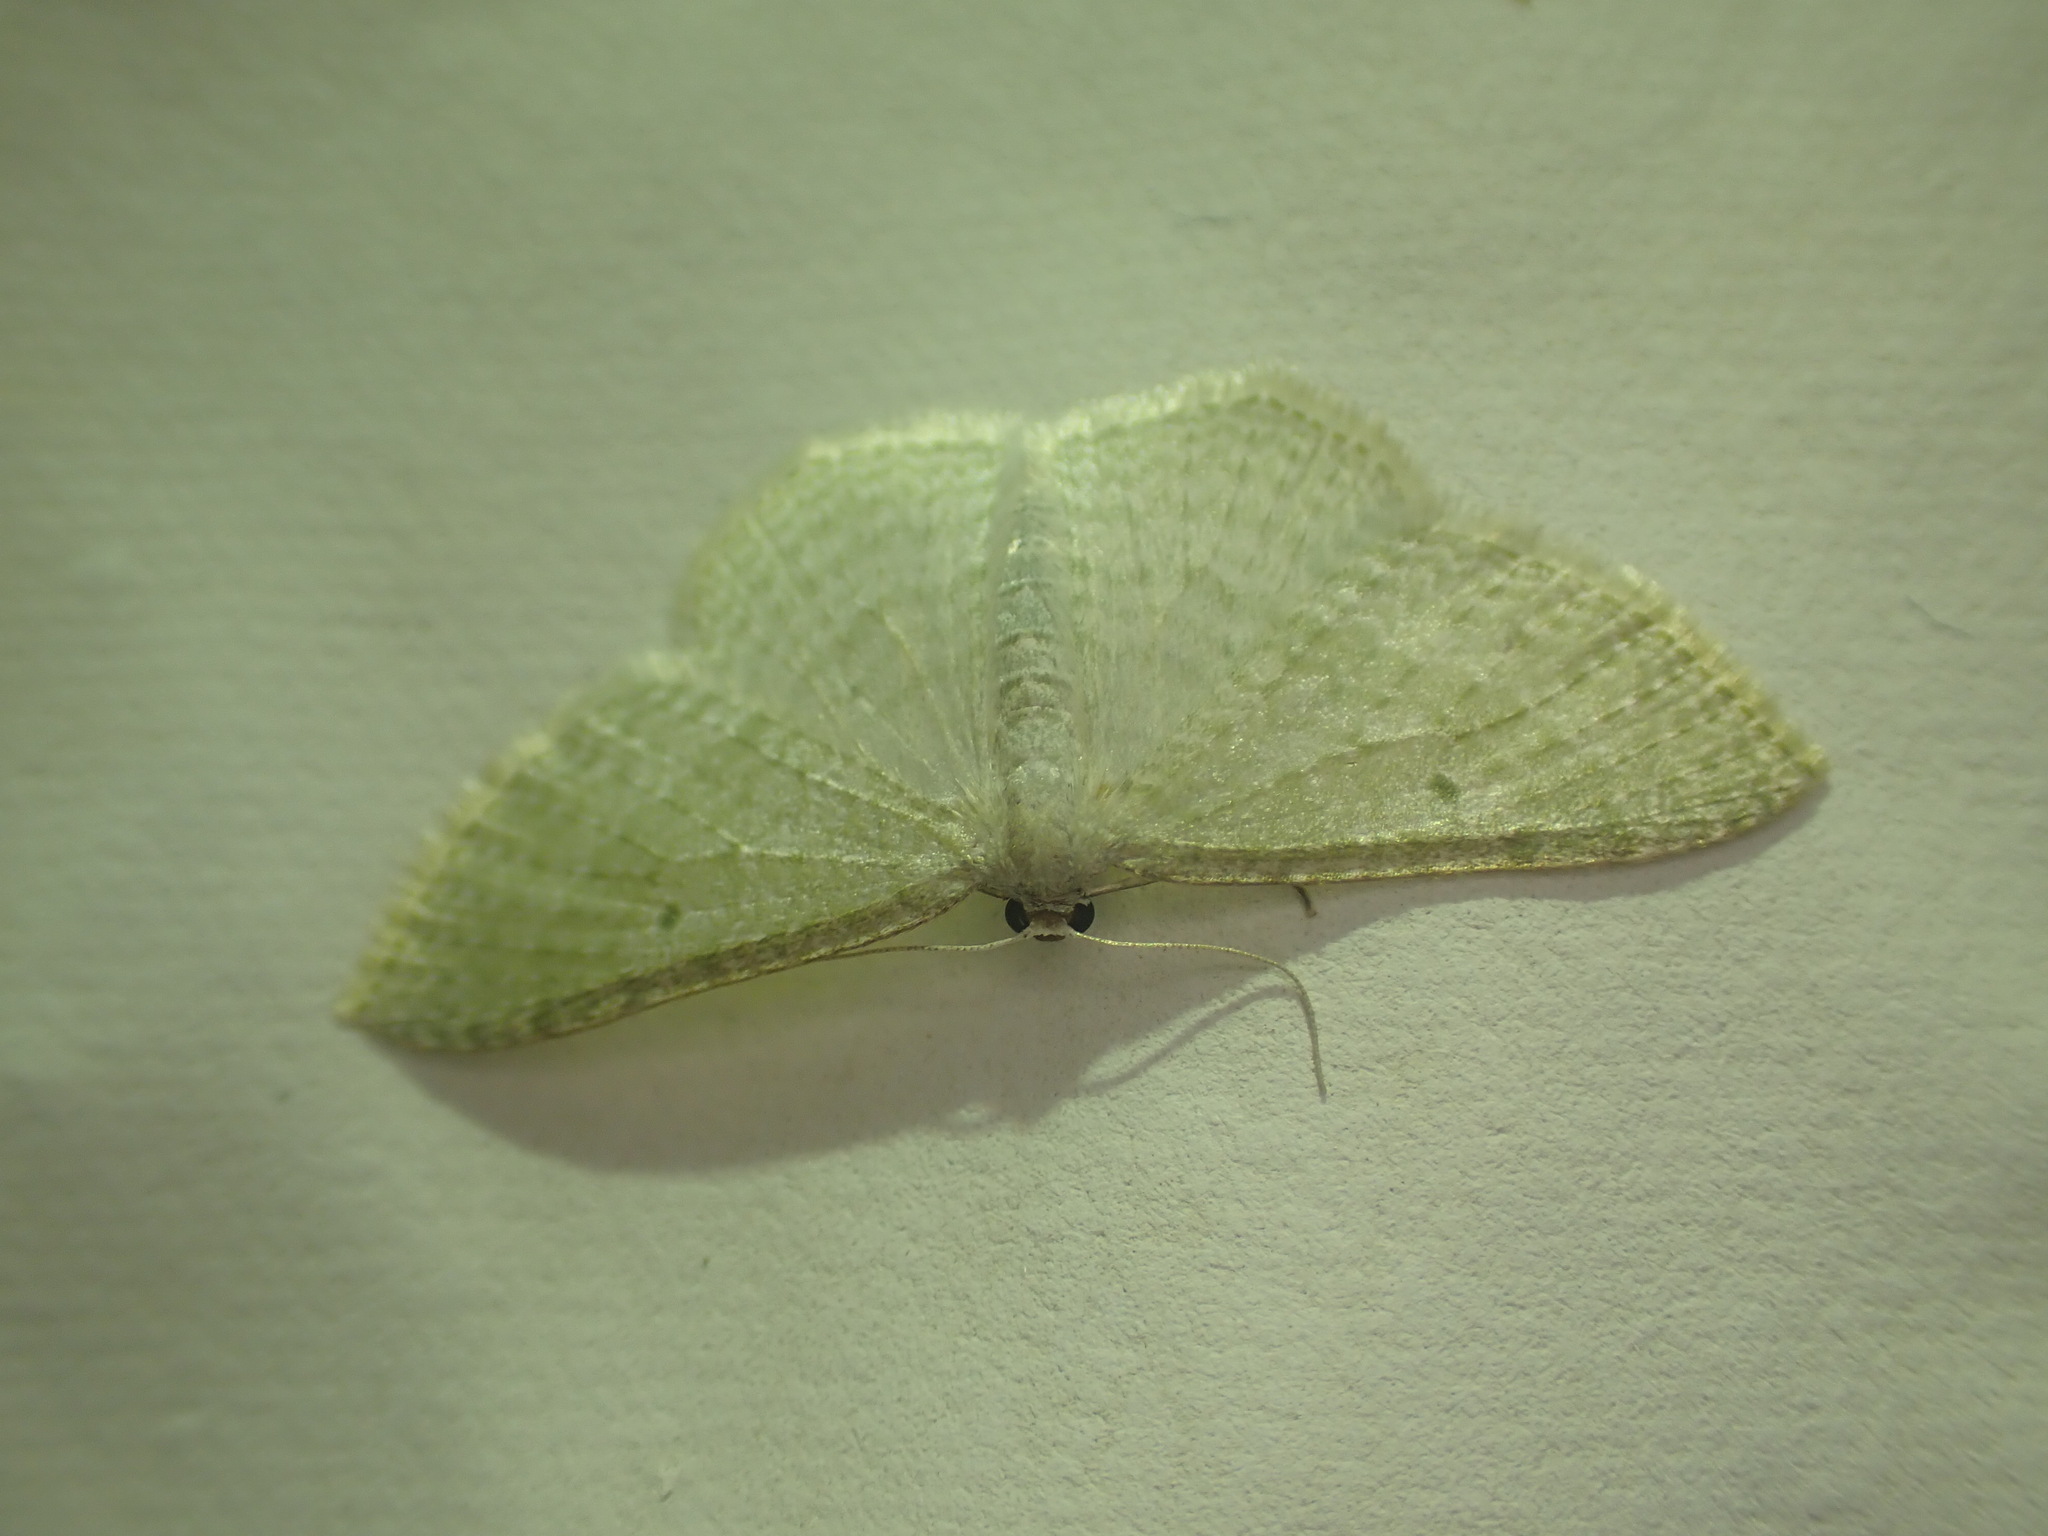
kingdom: Animalia
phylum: Arthropoda
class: Insecta
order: Lepidoptera
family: Geometridae
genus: Poecilasthena
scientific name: Poecilasthena pulchraria
